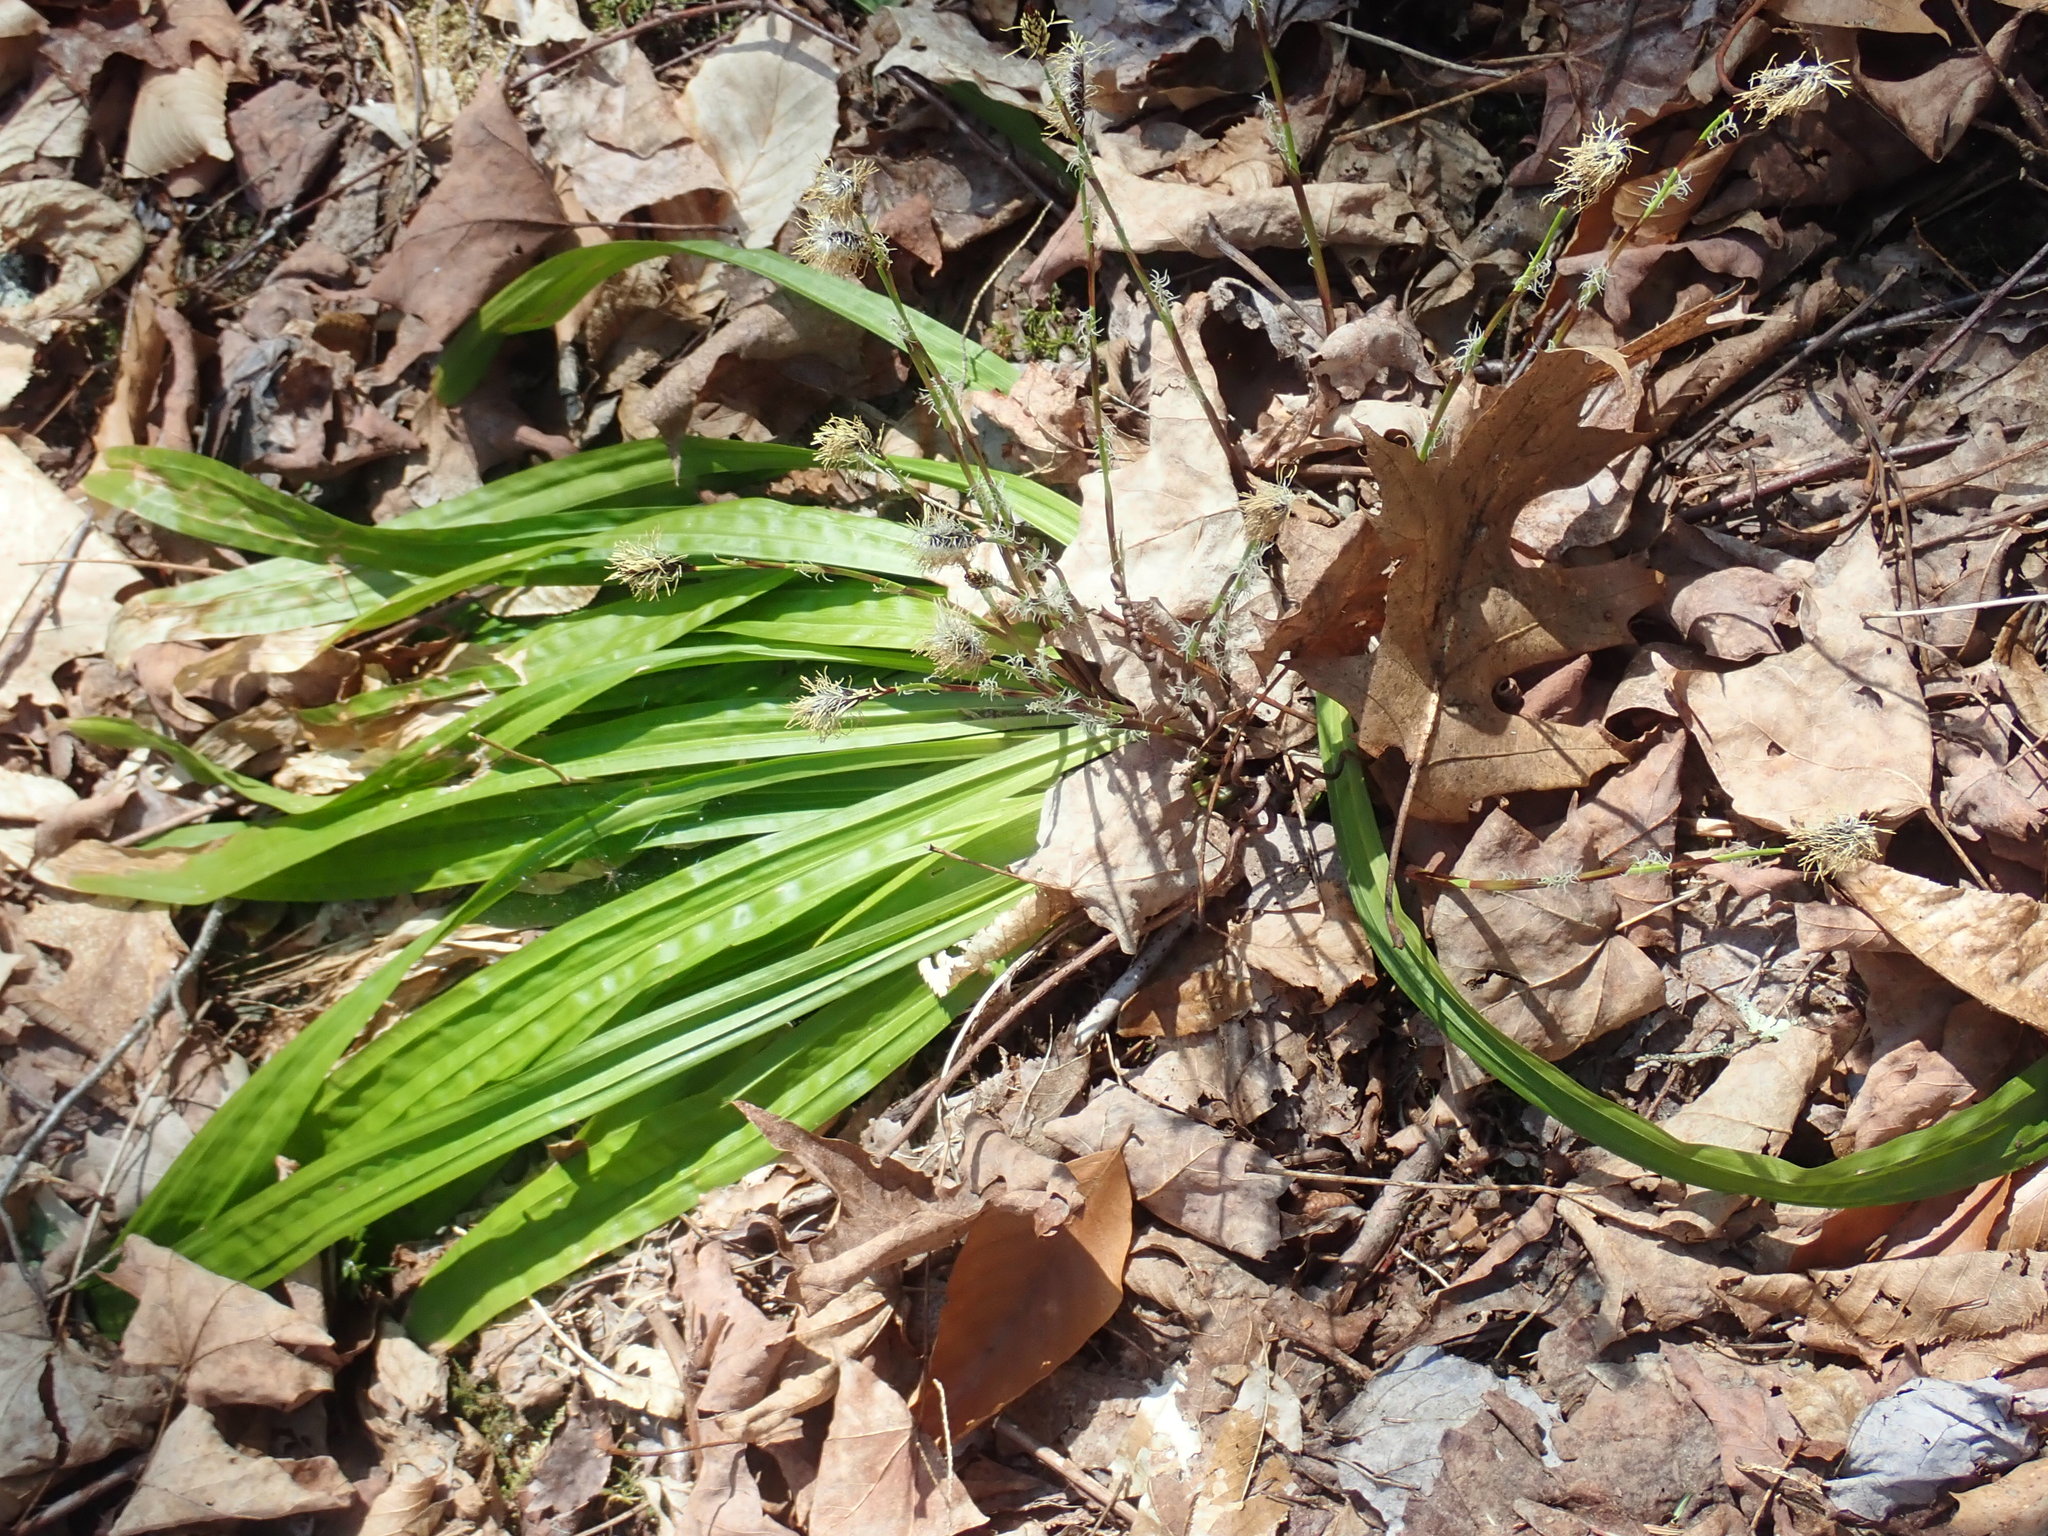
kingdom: Plantae
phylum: Tracheophyta
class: Liliopsida
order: Poales
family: Cyperaceae
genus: Carex
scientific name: Carex plantaginea
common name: Plantain-leaved sedge
